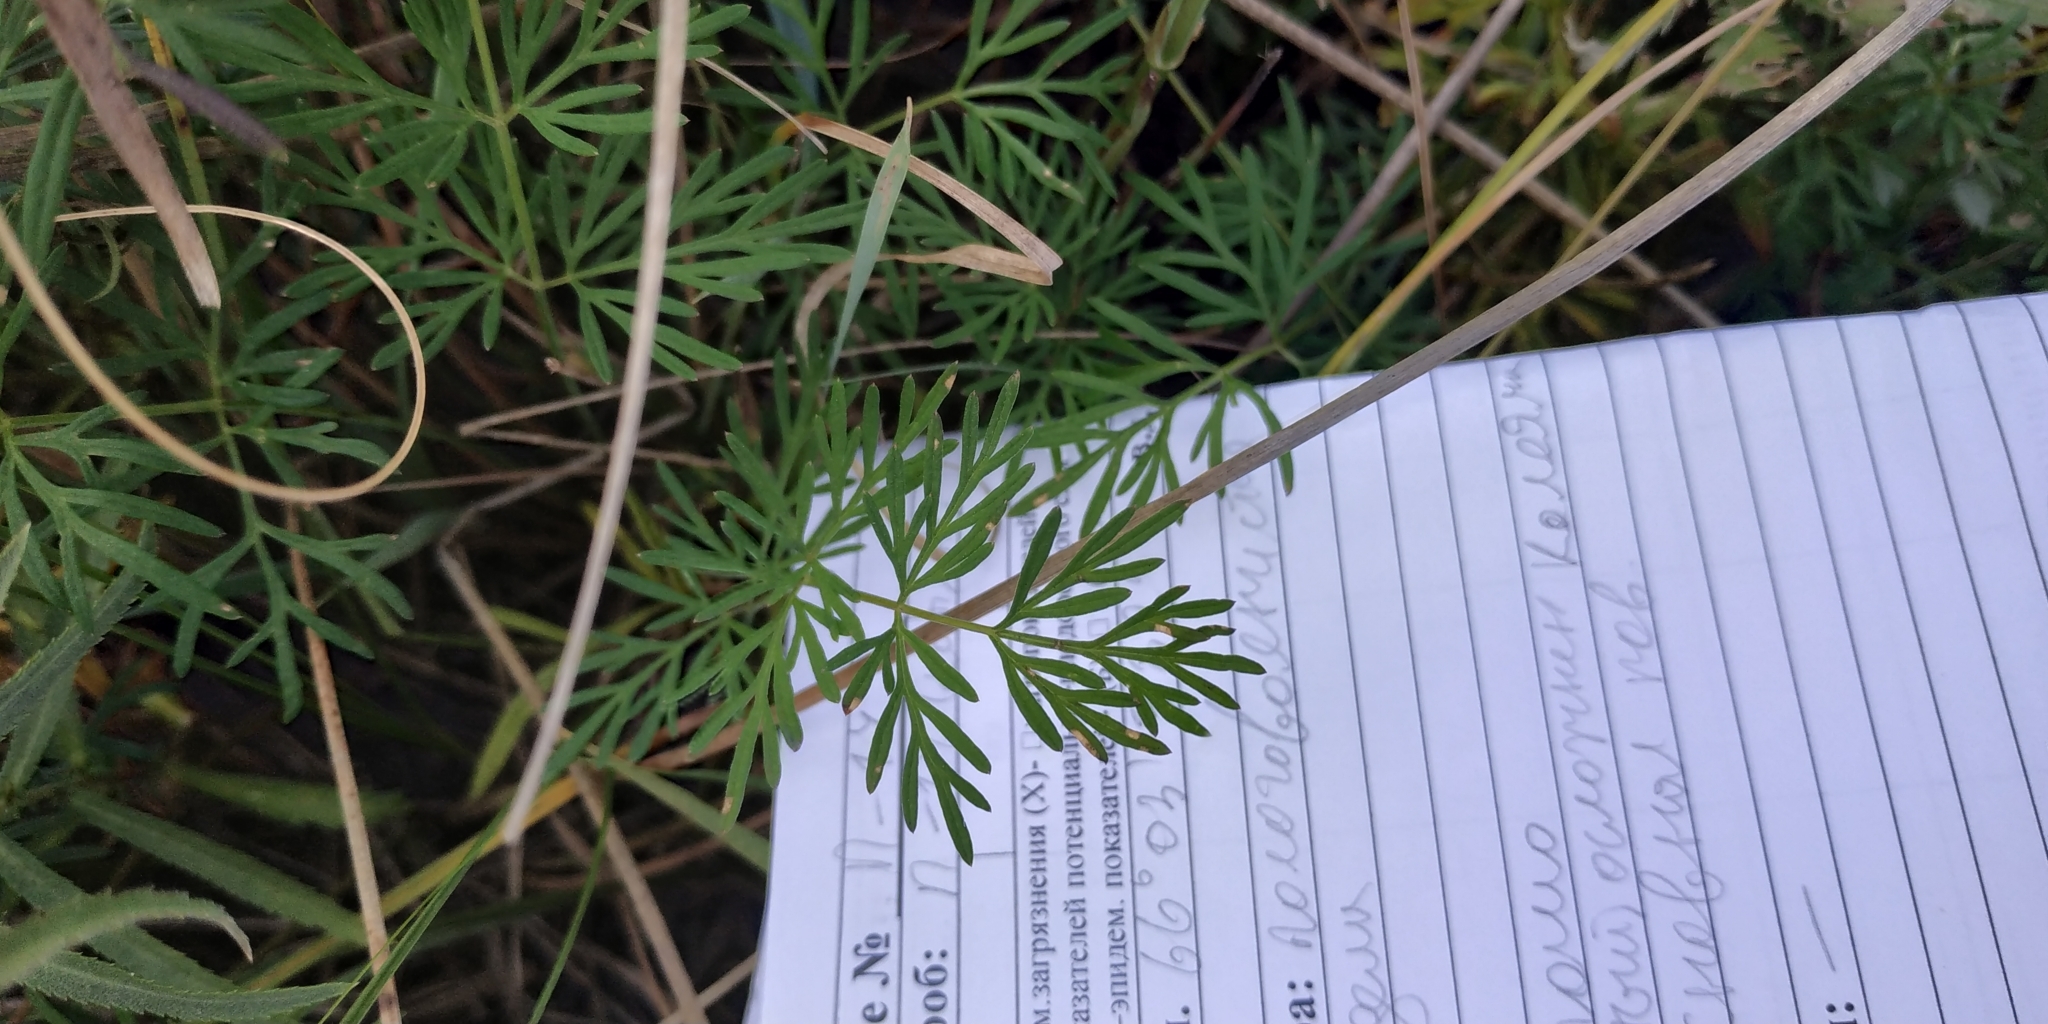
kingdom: Plantae
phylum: Tracheophyta
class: Magnoliopsida
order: Apiales
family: Apiaceae
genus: Kadenia
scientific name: Kadenia dubia
